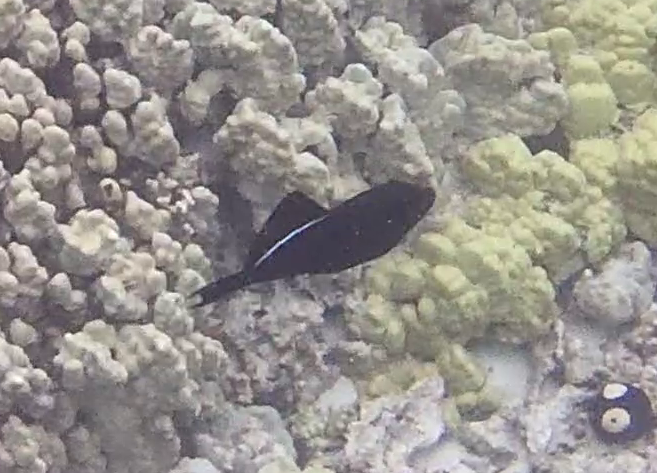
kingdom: Animalia
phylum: Chordata
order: Tetraodontiformes
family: Balistidae
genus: Melichthys
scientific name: Melichthys niger
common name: Black durgon
